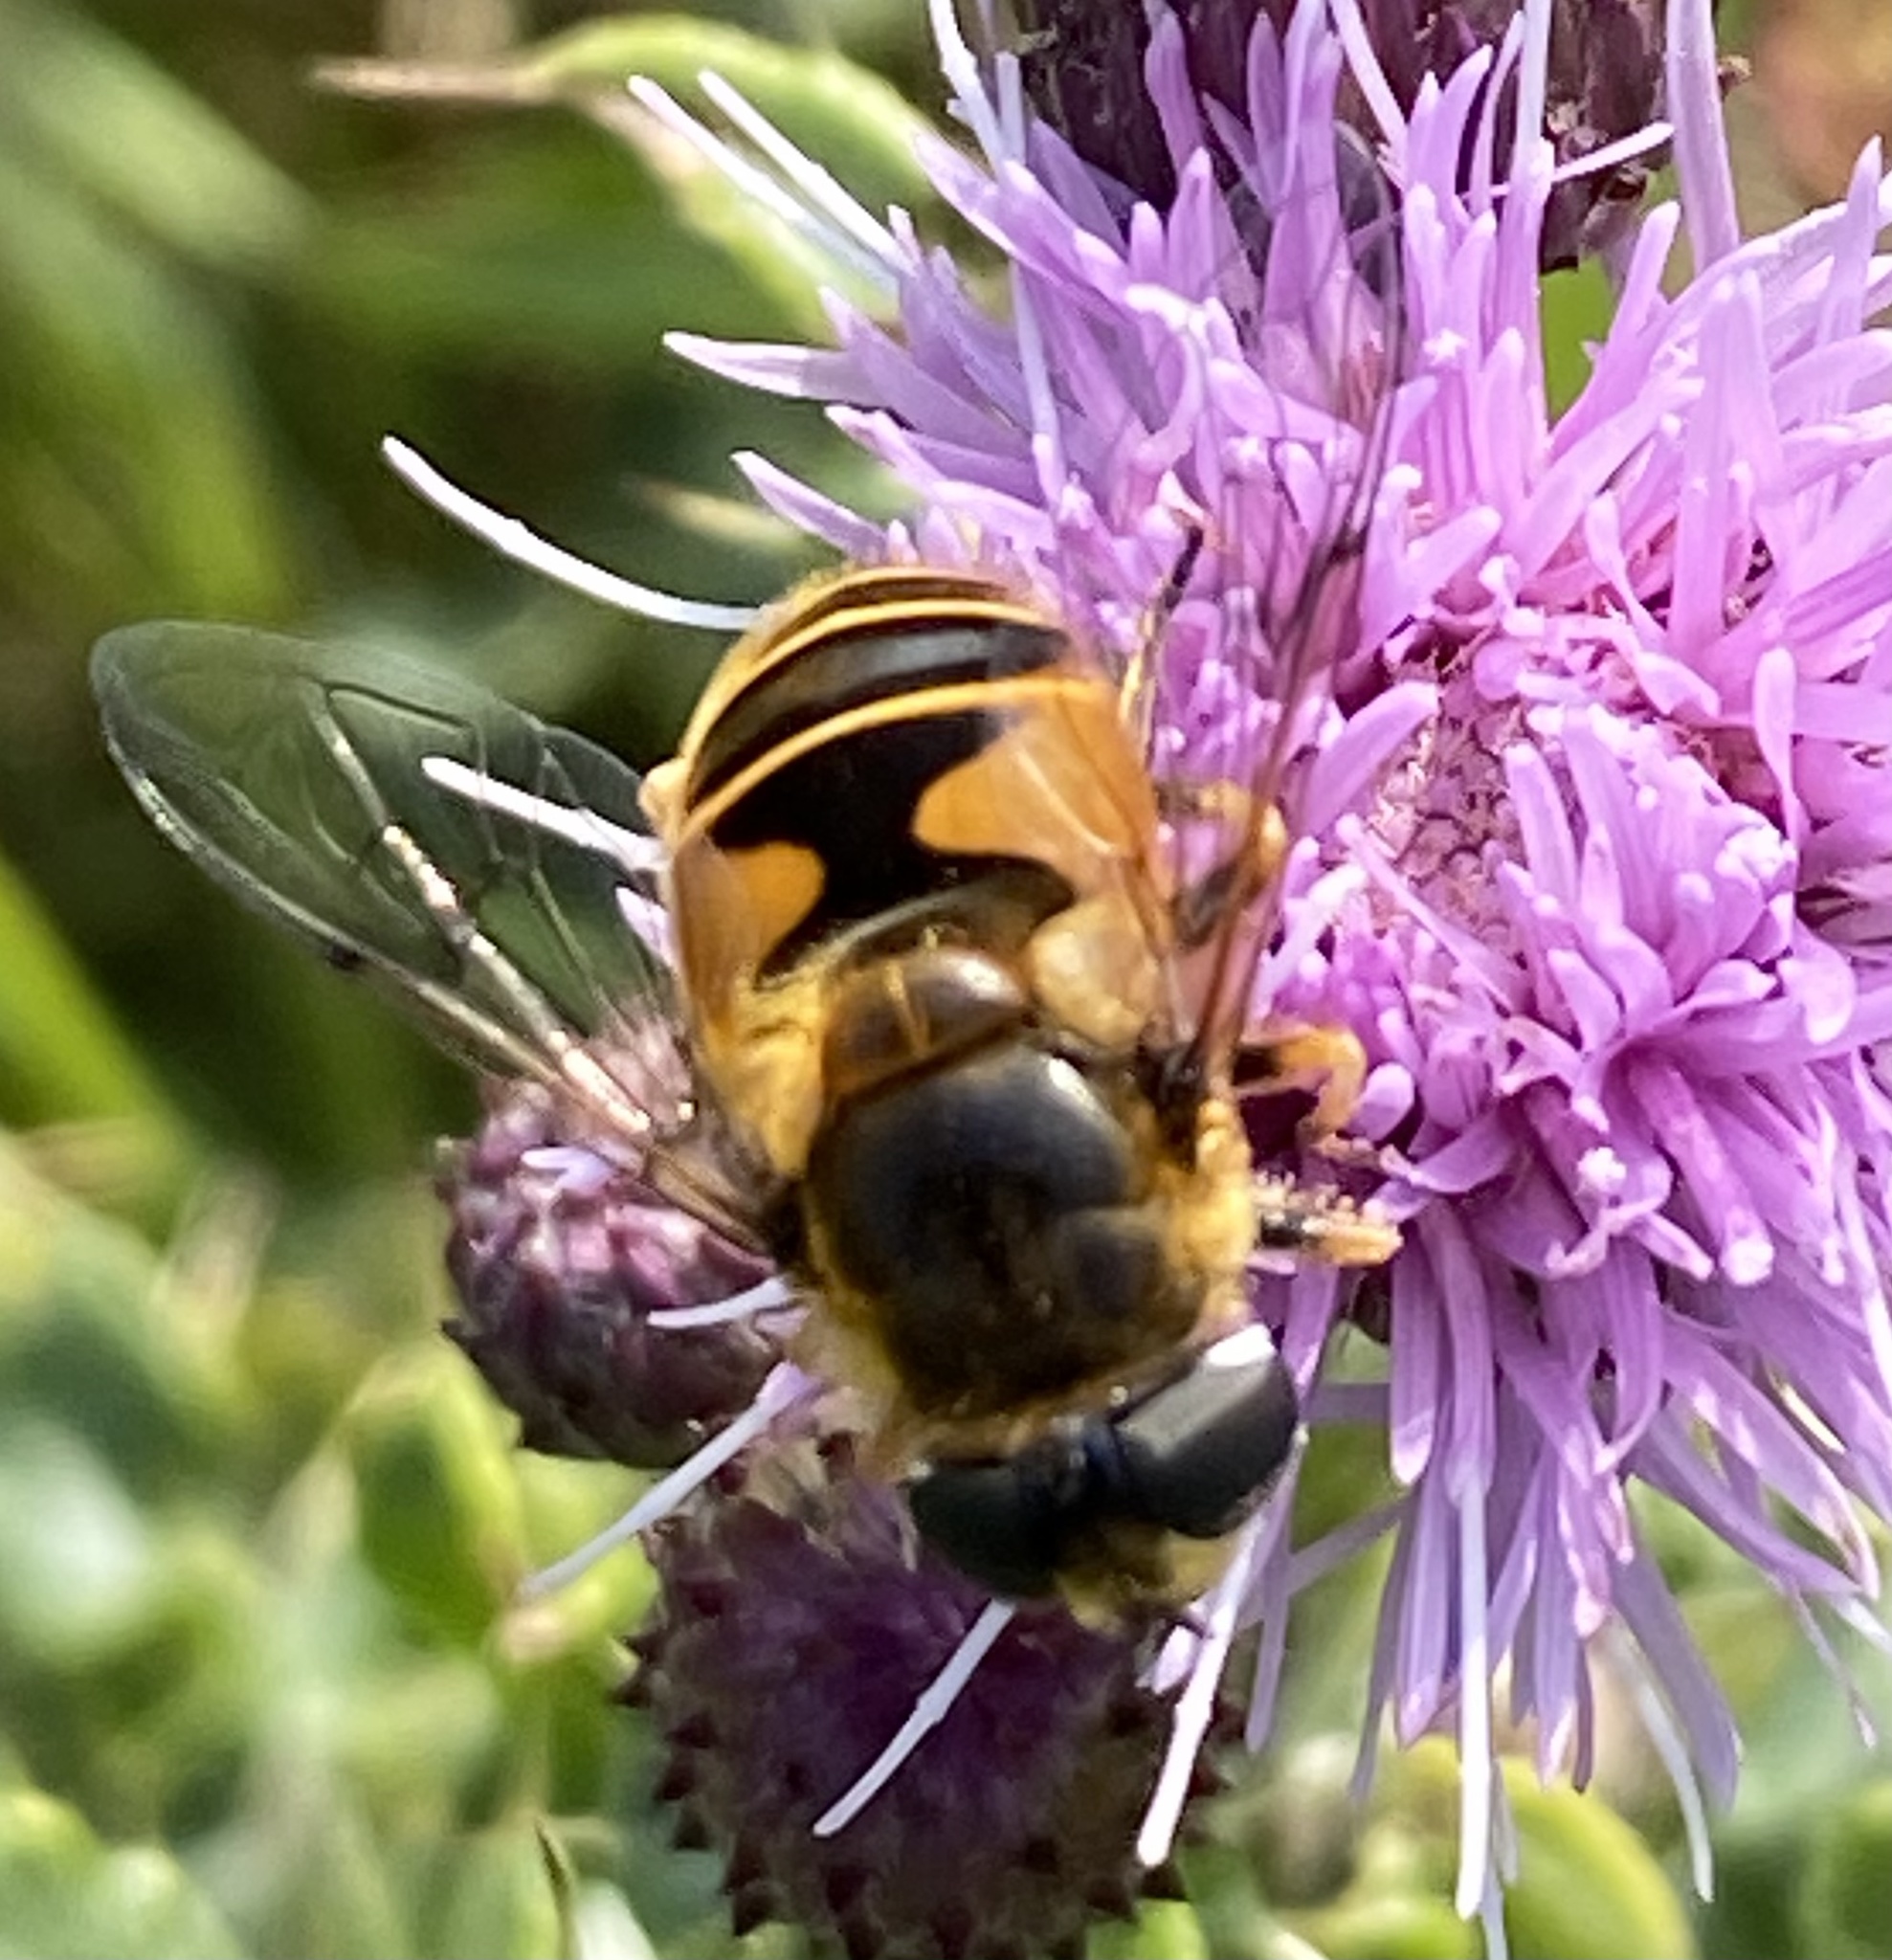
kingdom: Animalia
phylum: Arthropoda
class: Insecta
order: Diptera
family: Syrphidae
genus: Cheilosia
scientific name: Cheilosia morio
